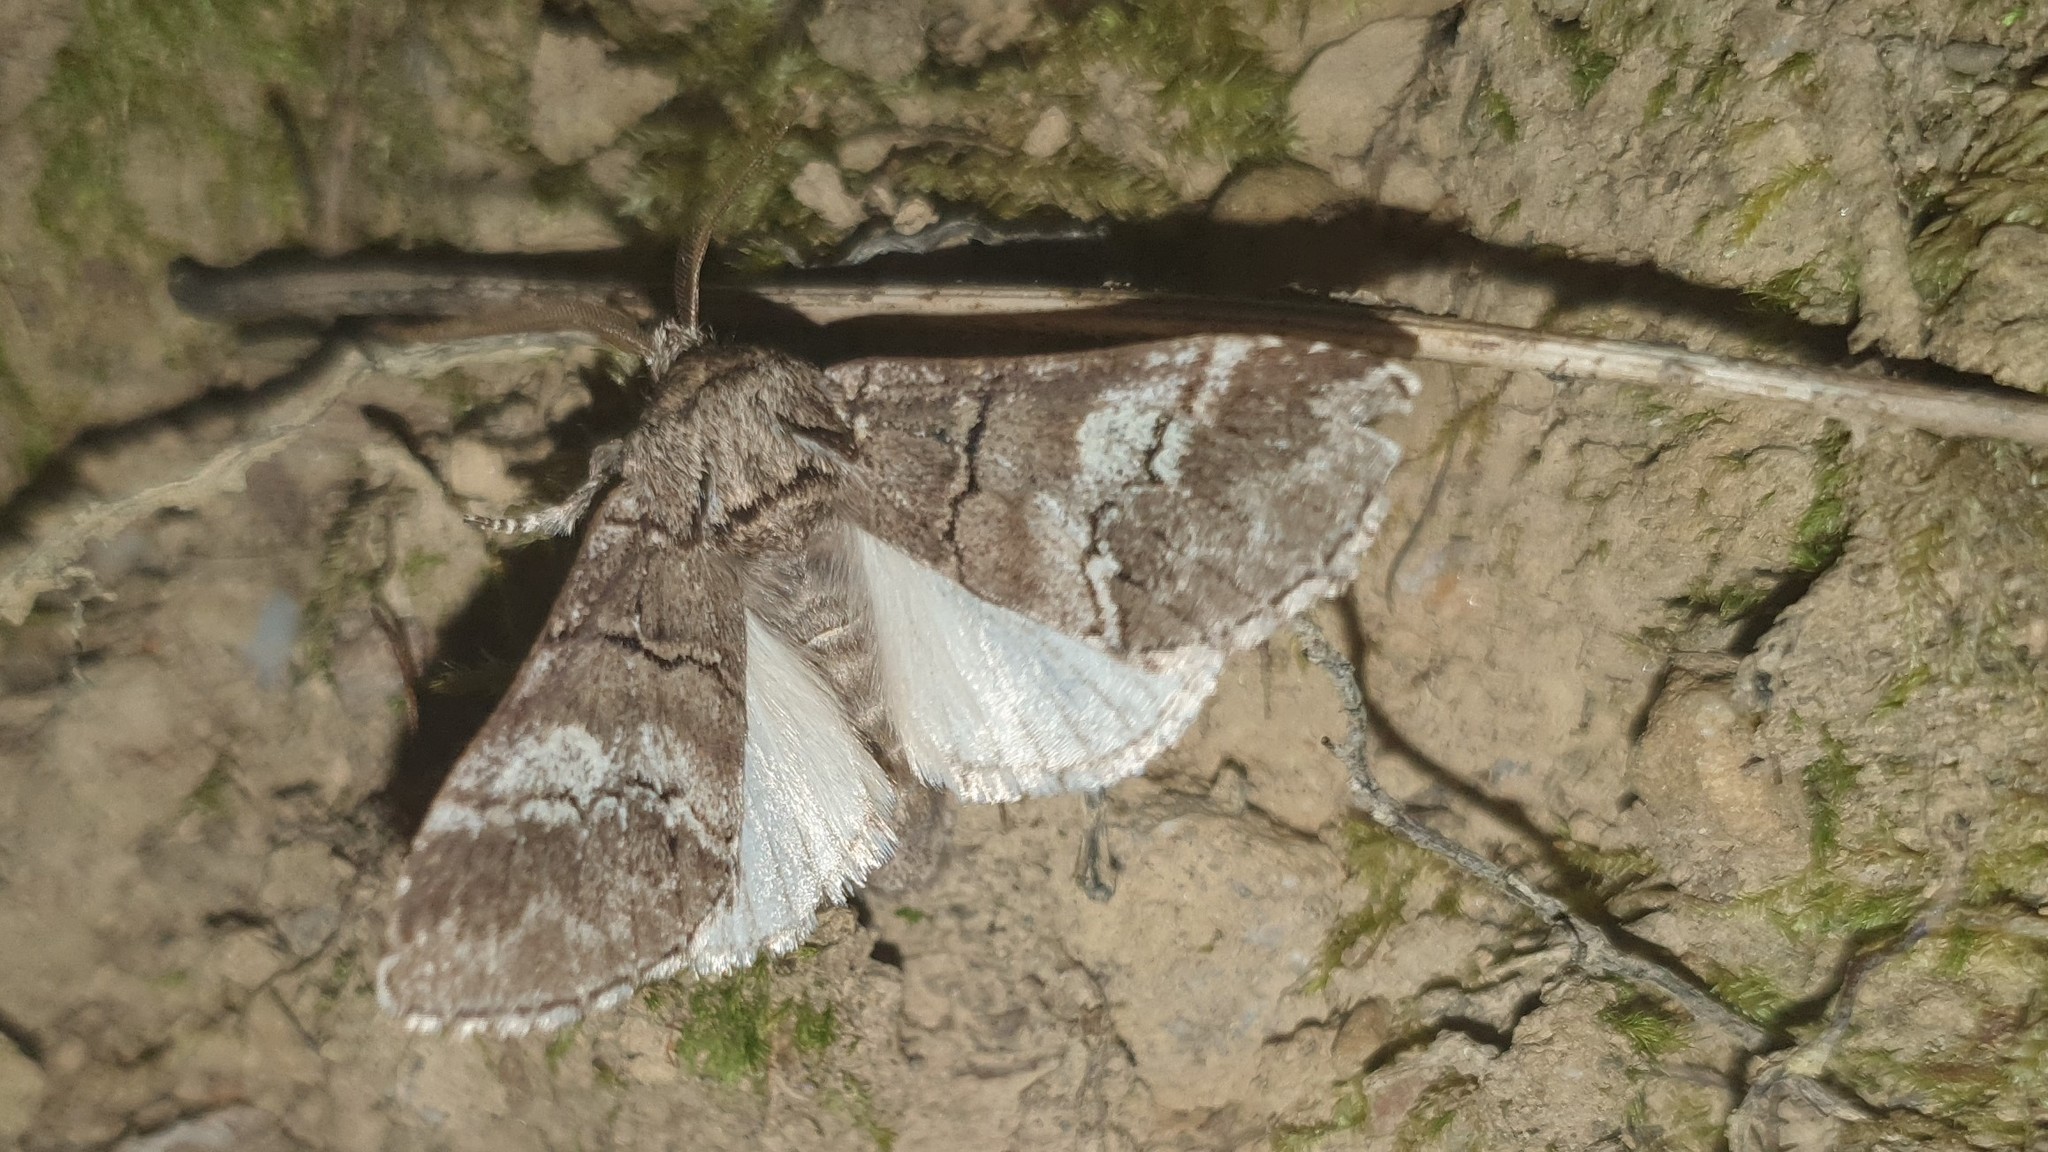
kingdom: Animalia
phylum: Arthropoda
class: Insecta
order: Lepidoptera
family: Notodontidae
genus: Drymonia
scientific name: Drymonia querna
